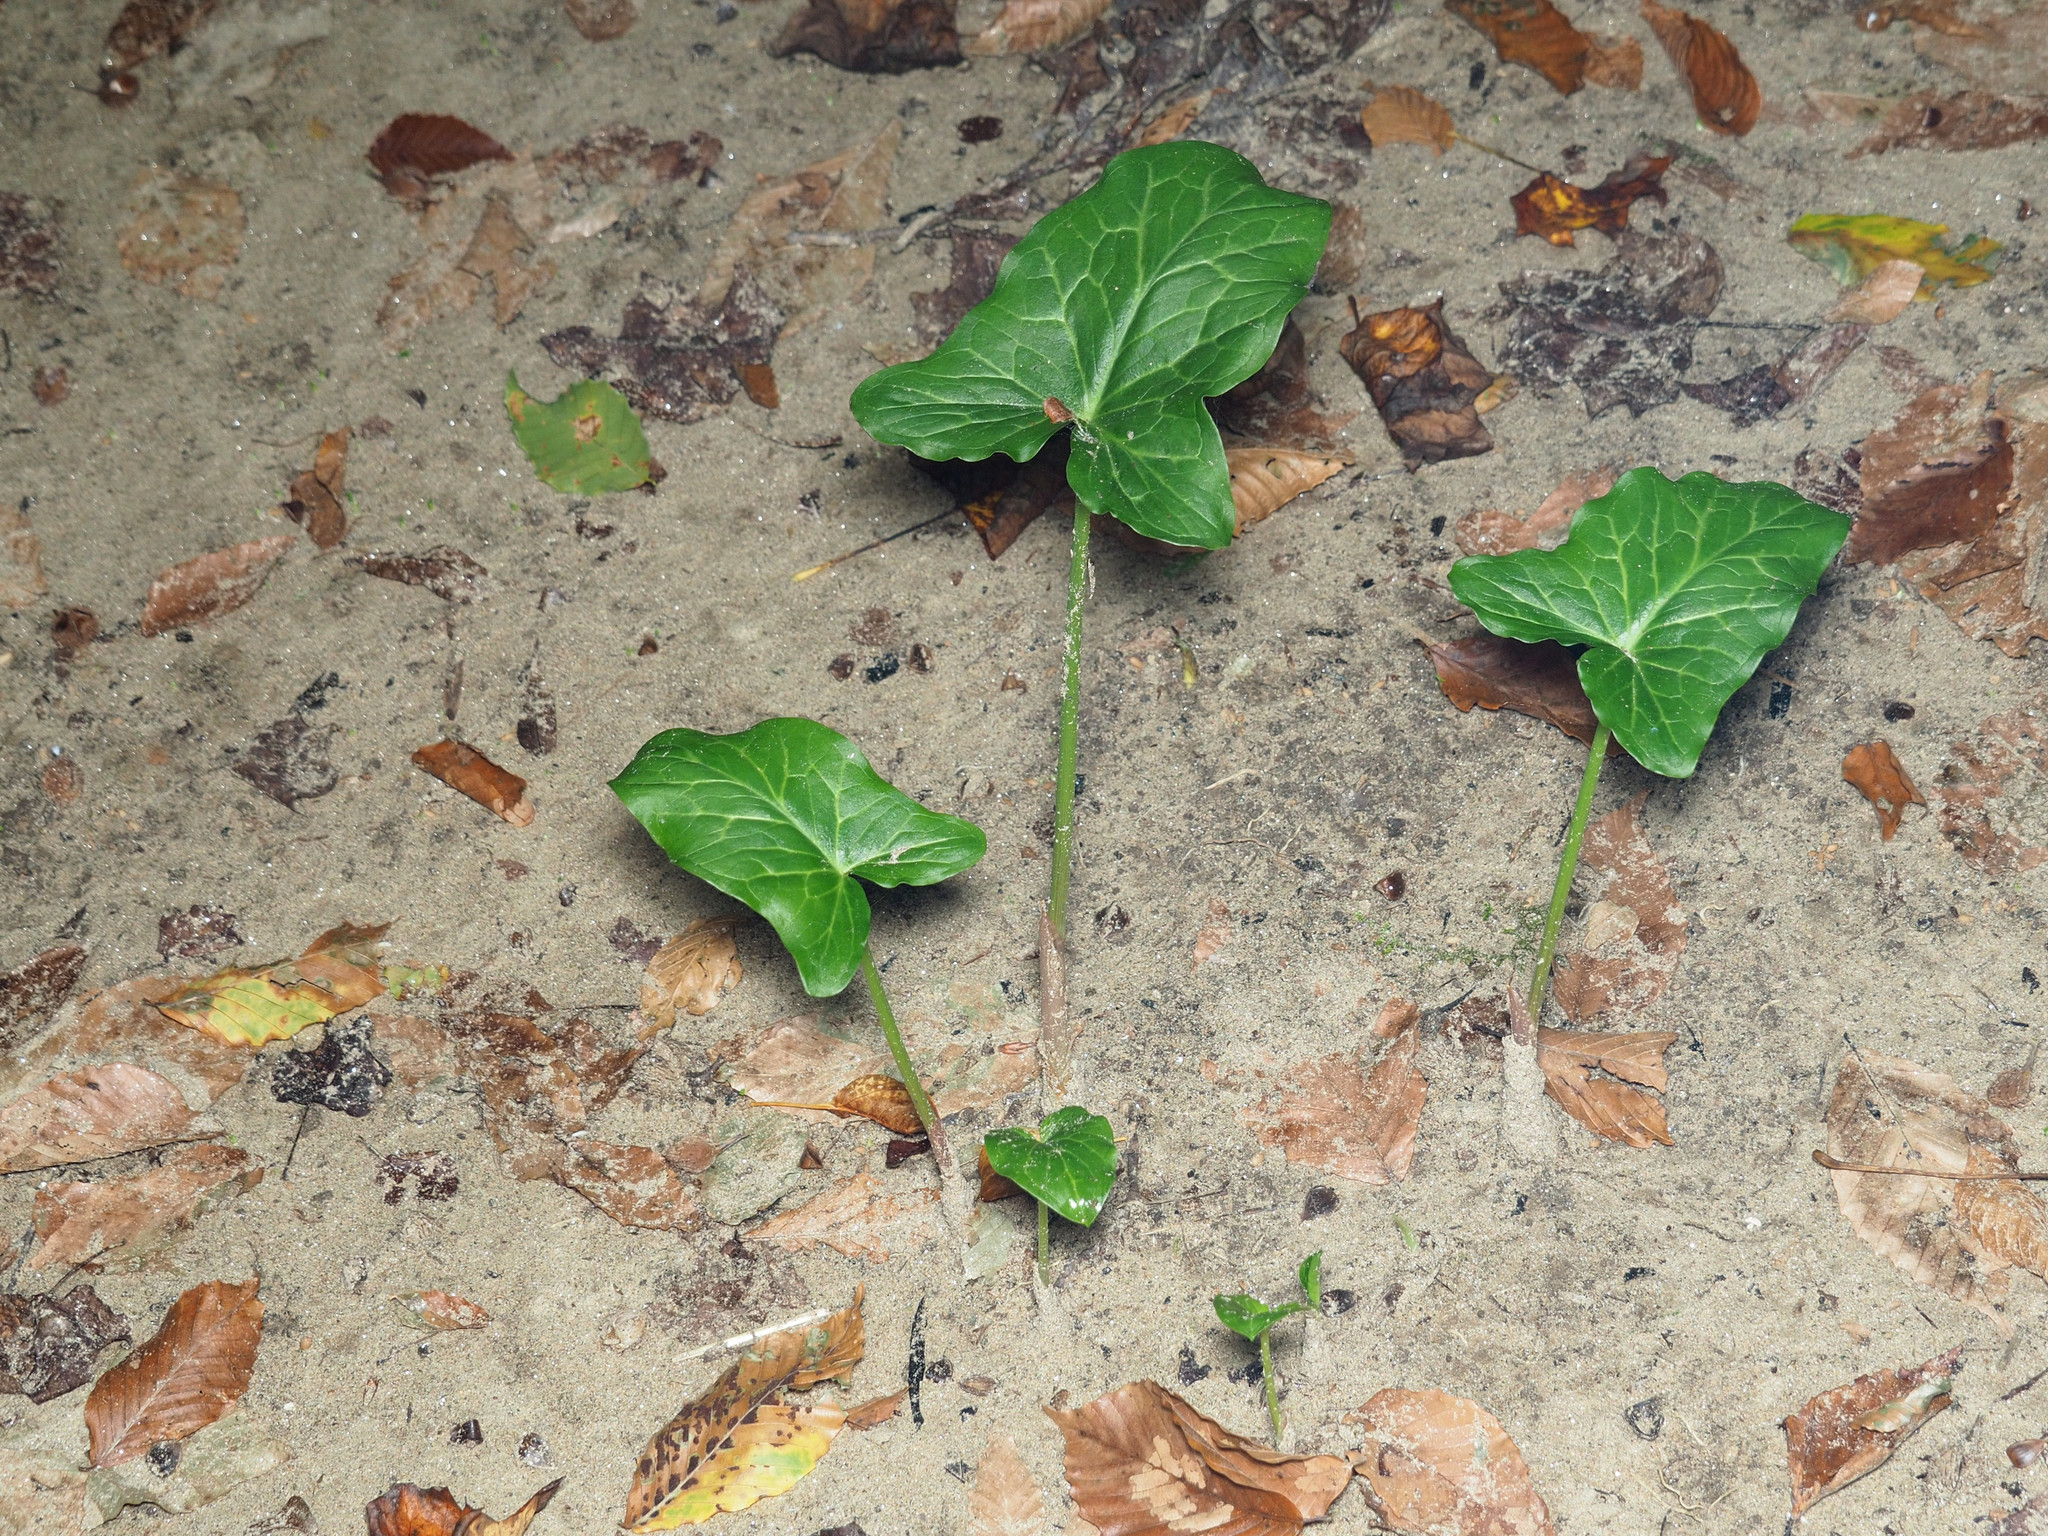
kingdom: Plantae
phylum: Tracheophyta
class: Liliopsida
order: Alismatales
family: Araceae
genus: Arum
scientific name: Arum italicum
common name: Italian lords-and-ladies
